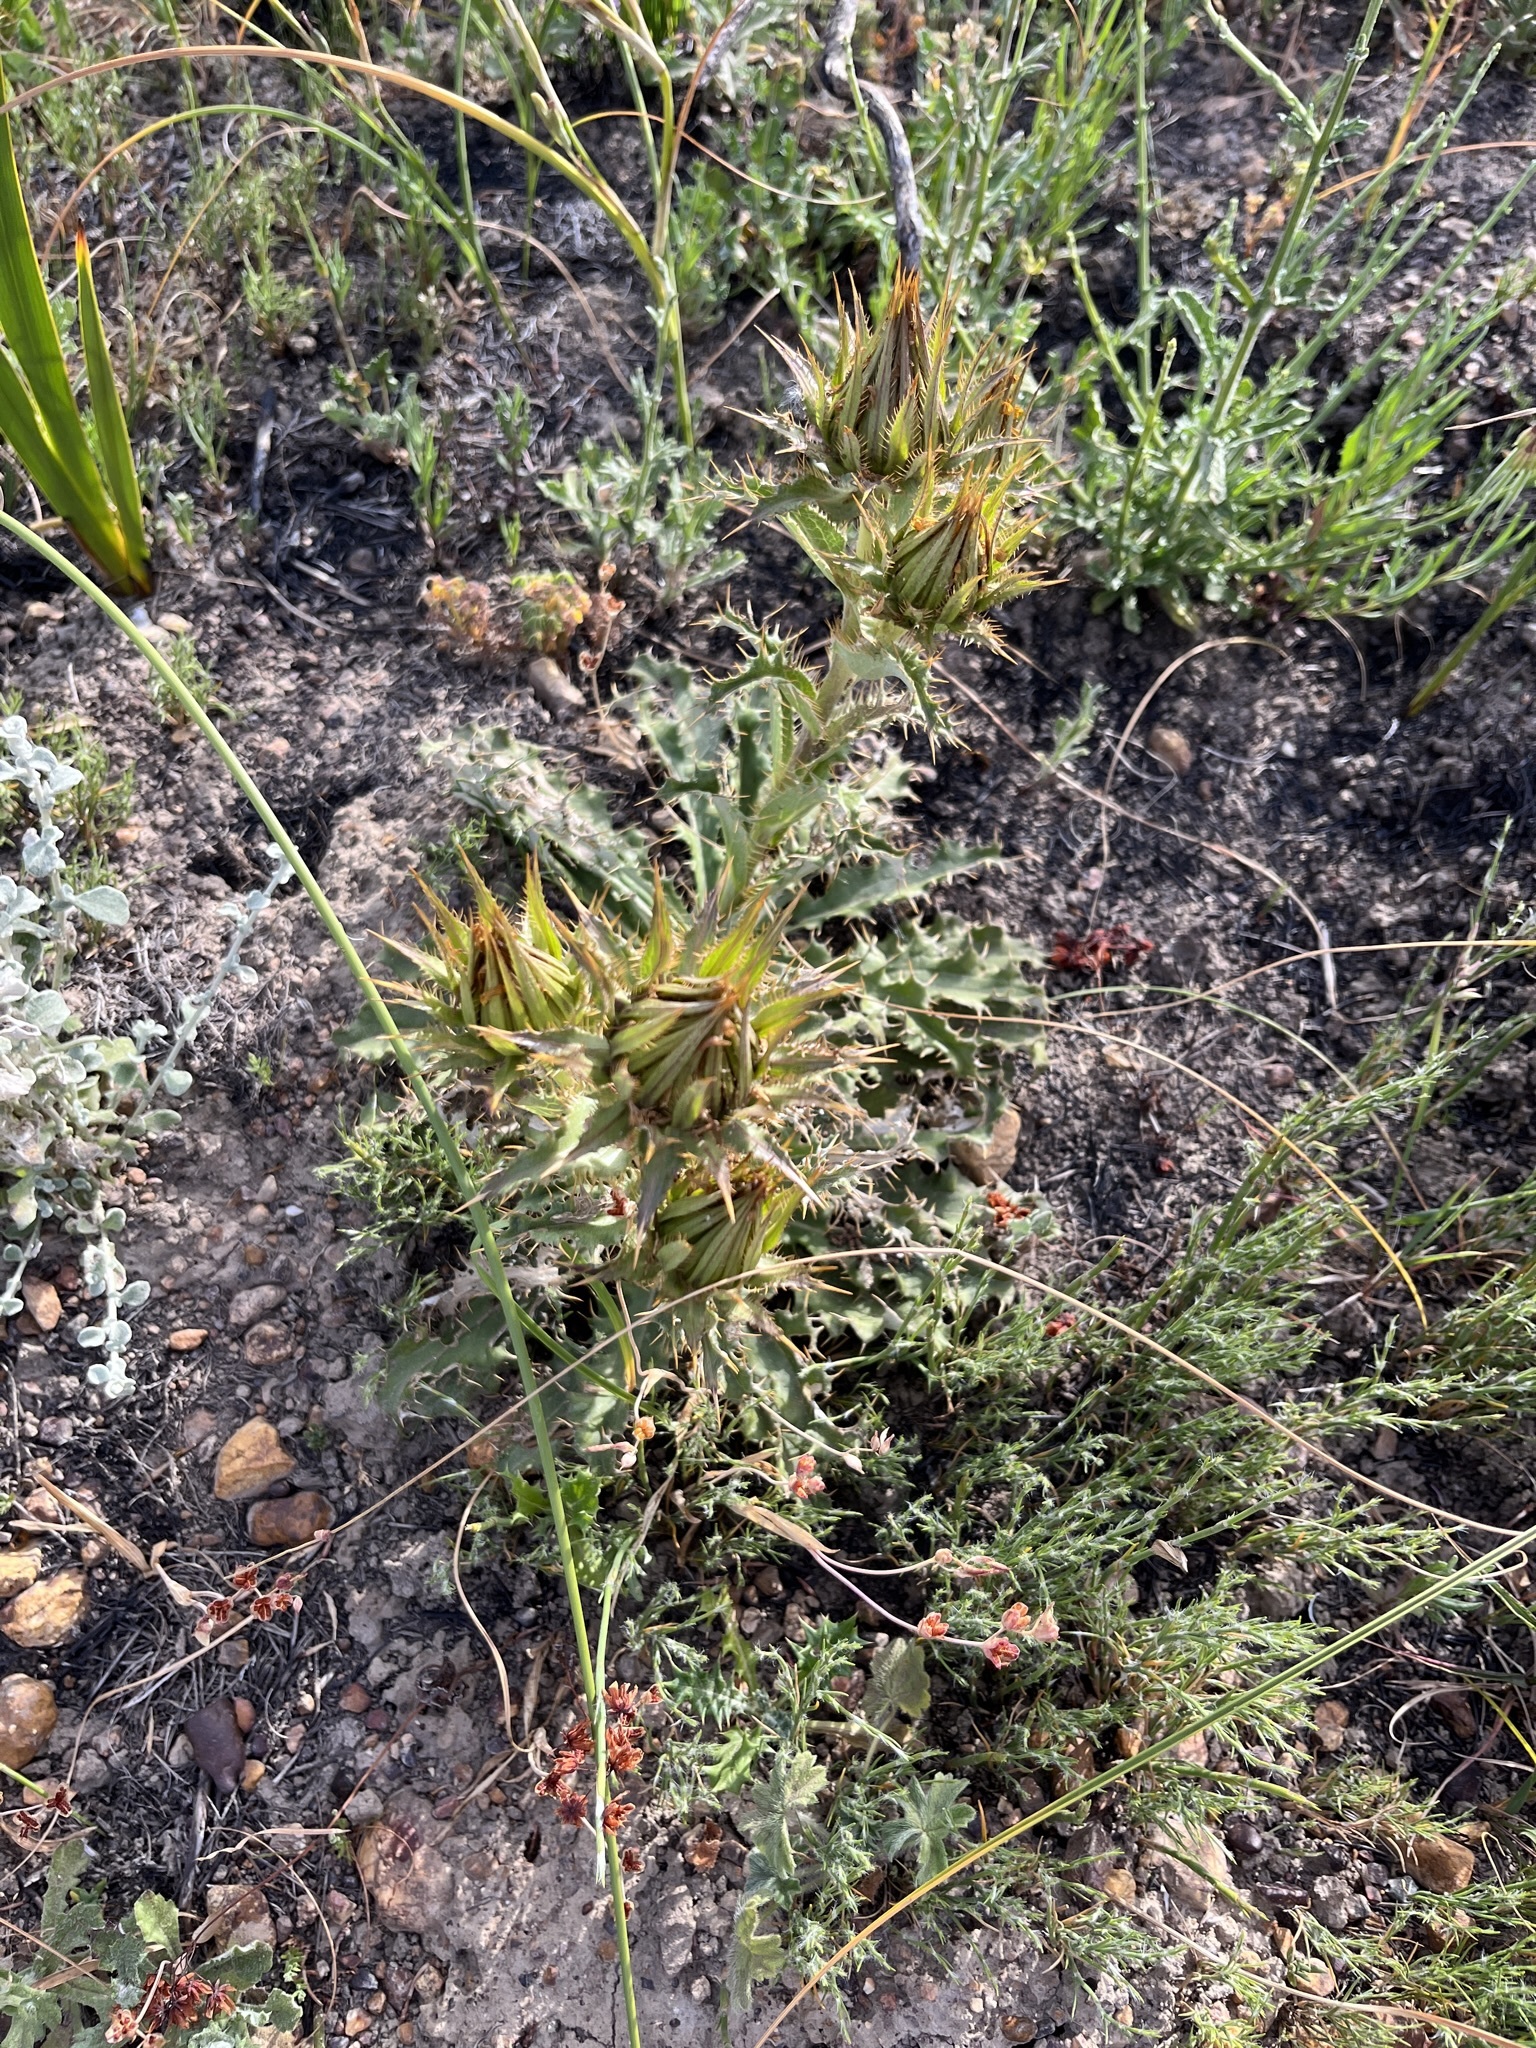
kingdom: Plantae
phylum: Tracheophyta
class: Magnoliopsida
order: Asterales
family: Asteraceae
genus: Berkheya
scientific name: Berkheya armata
